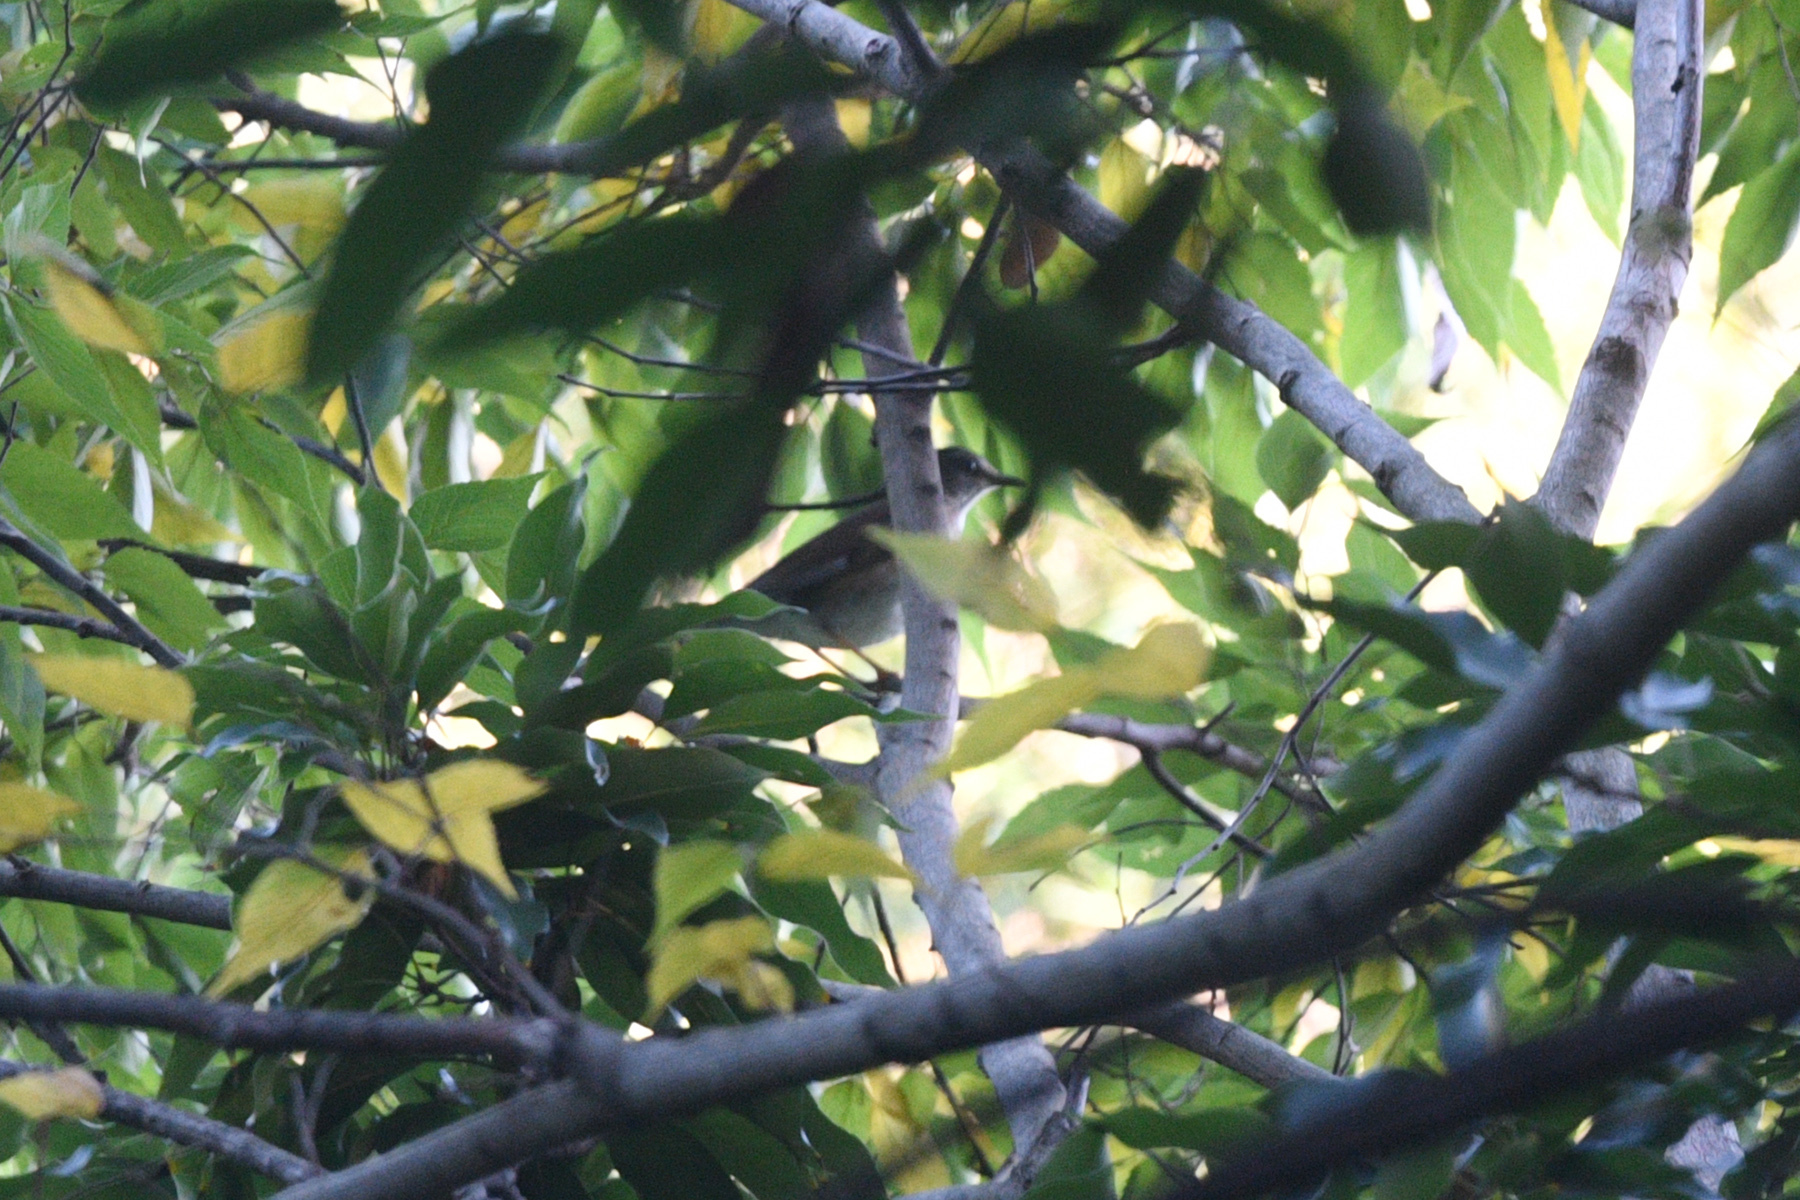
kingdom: Animalia
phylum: Chordata
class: Aves
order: Passeriformes
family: Turdidae
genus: Turdus
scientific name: Turdus pallidus
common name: Pale thrush
